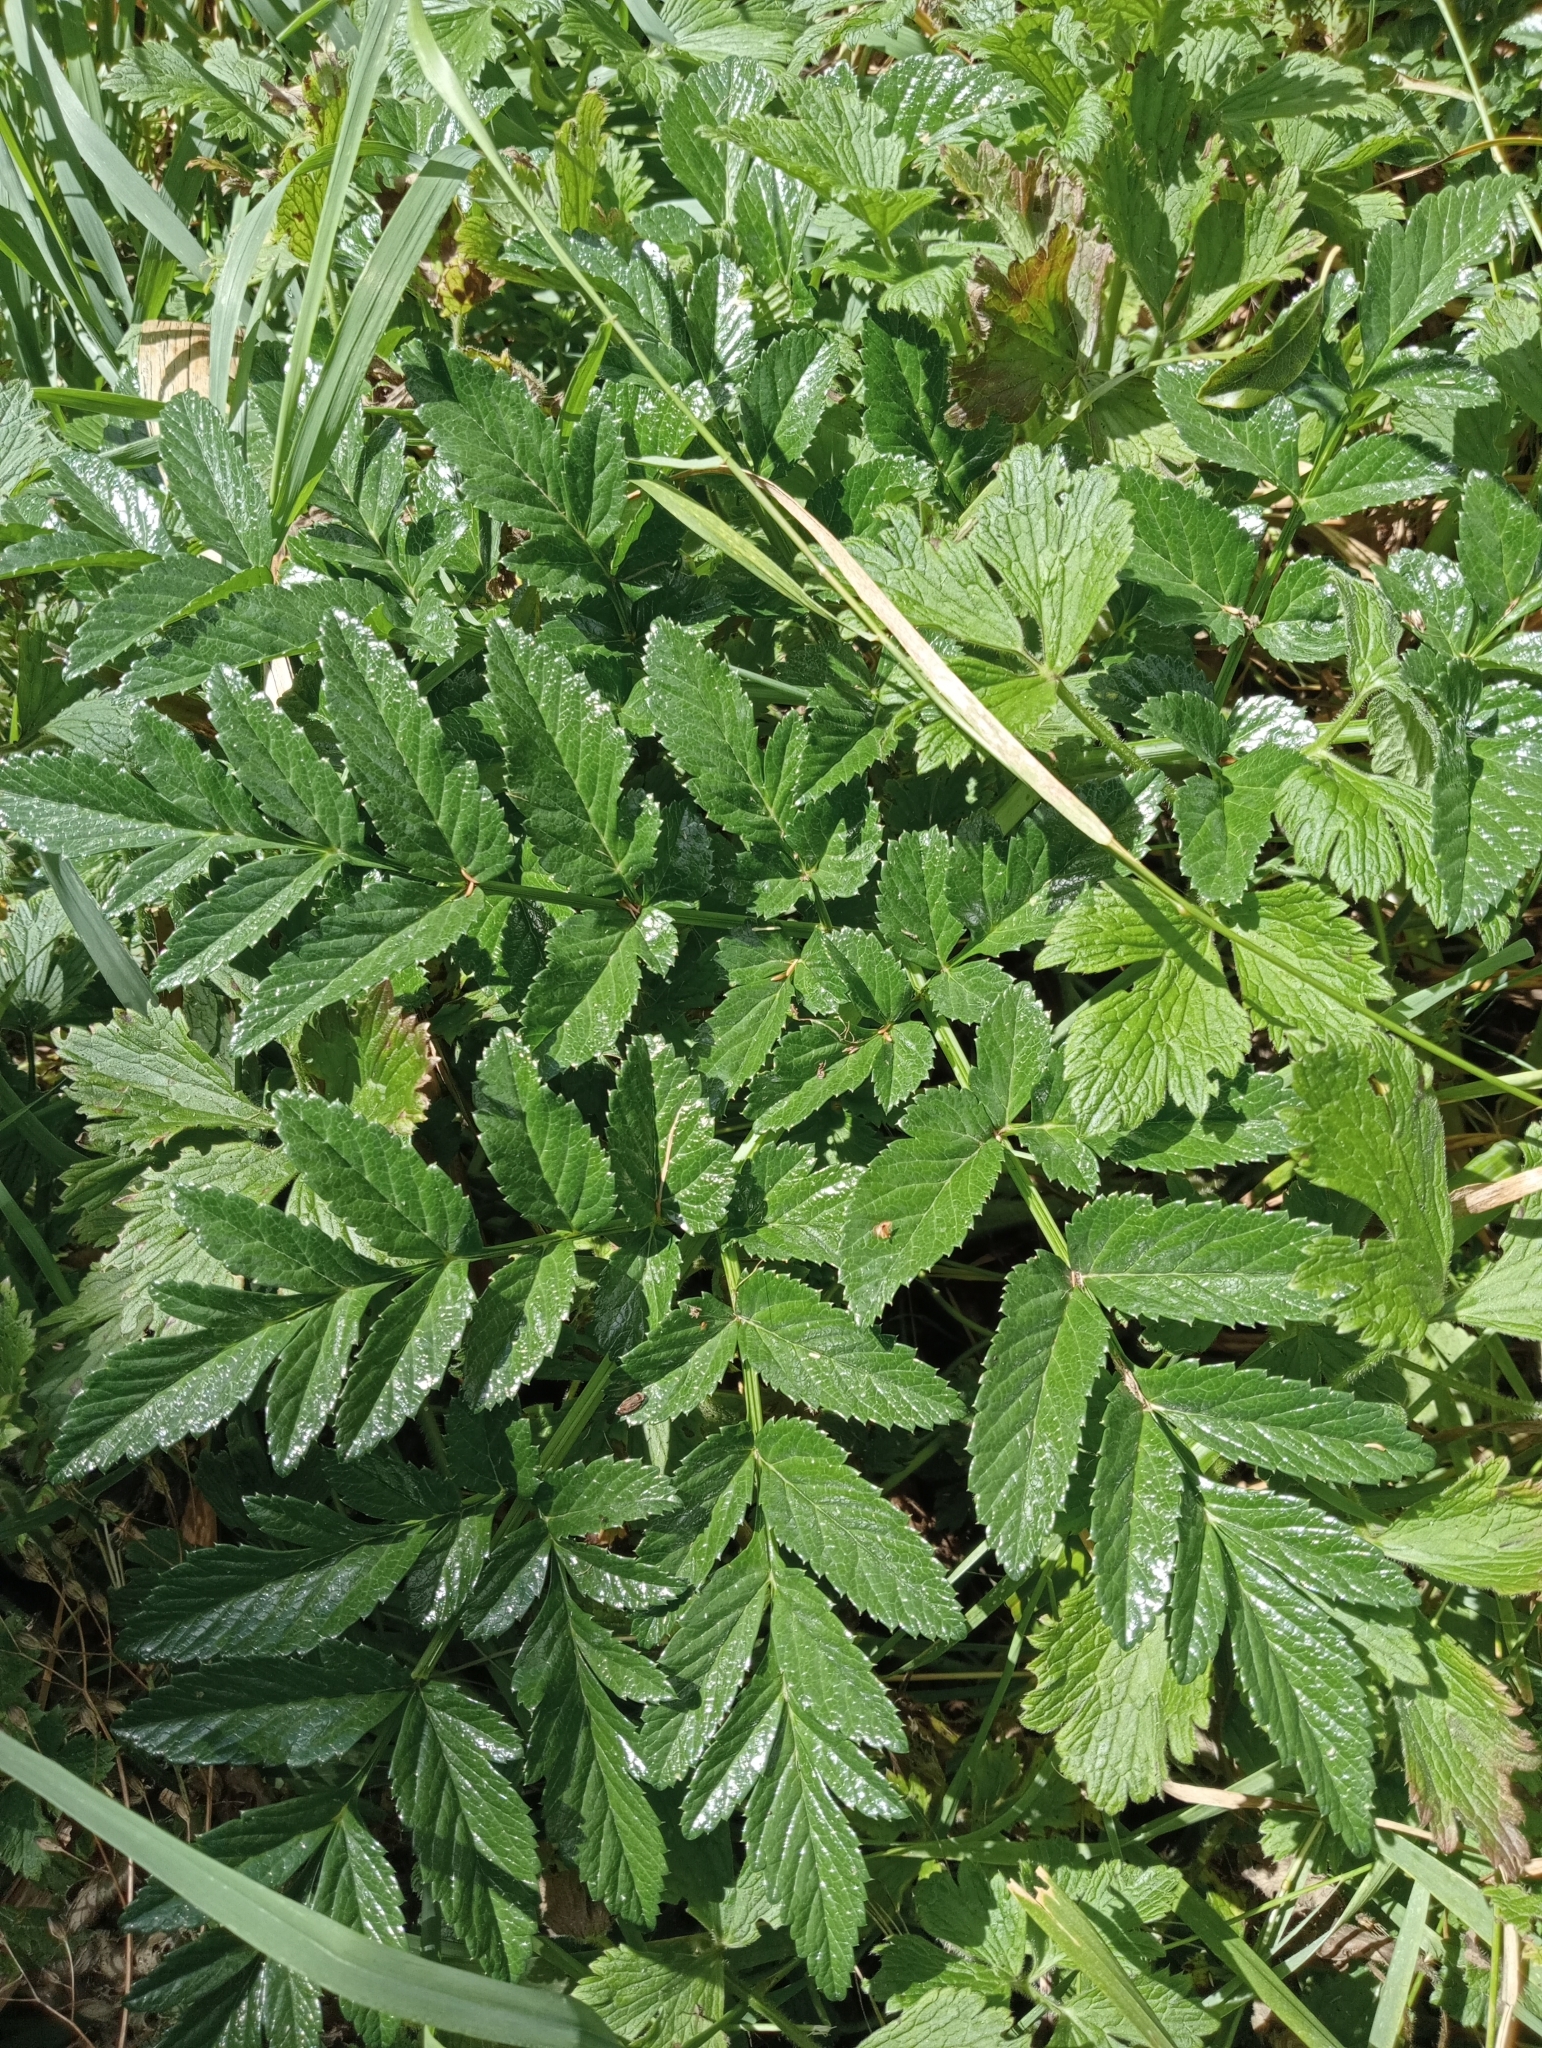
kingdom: Plantae
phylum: Tracheophyta
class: Magnoliopsida
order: Apiales
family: Apiaceae
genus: Angelica
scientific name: Angelica pachycarpa
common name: Portuguese angelica
